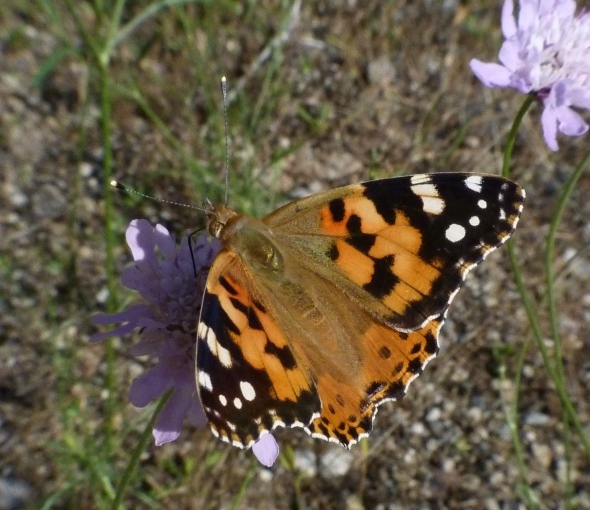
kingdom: Animalia
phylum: Arthropoda
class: Insecta
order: Lepidoptera
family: Nymphalidae
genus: Vanessa
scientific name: Vanessa cardui
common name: Painted lady
